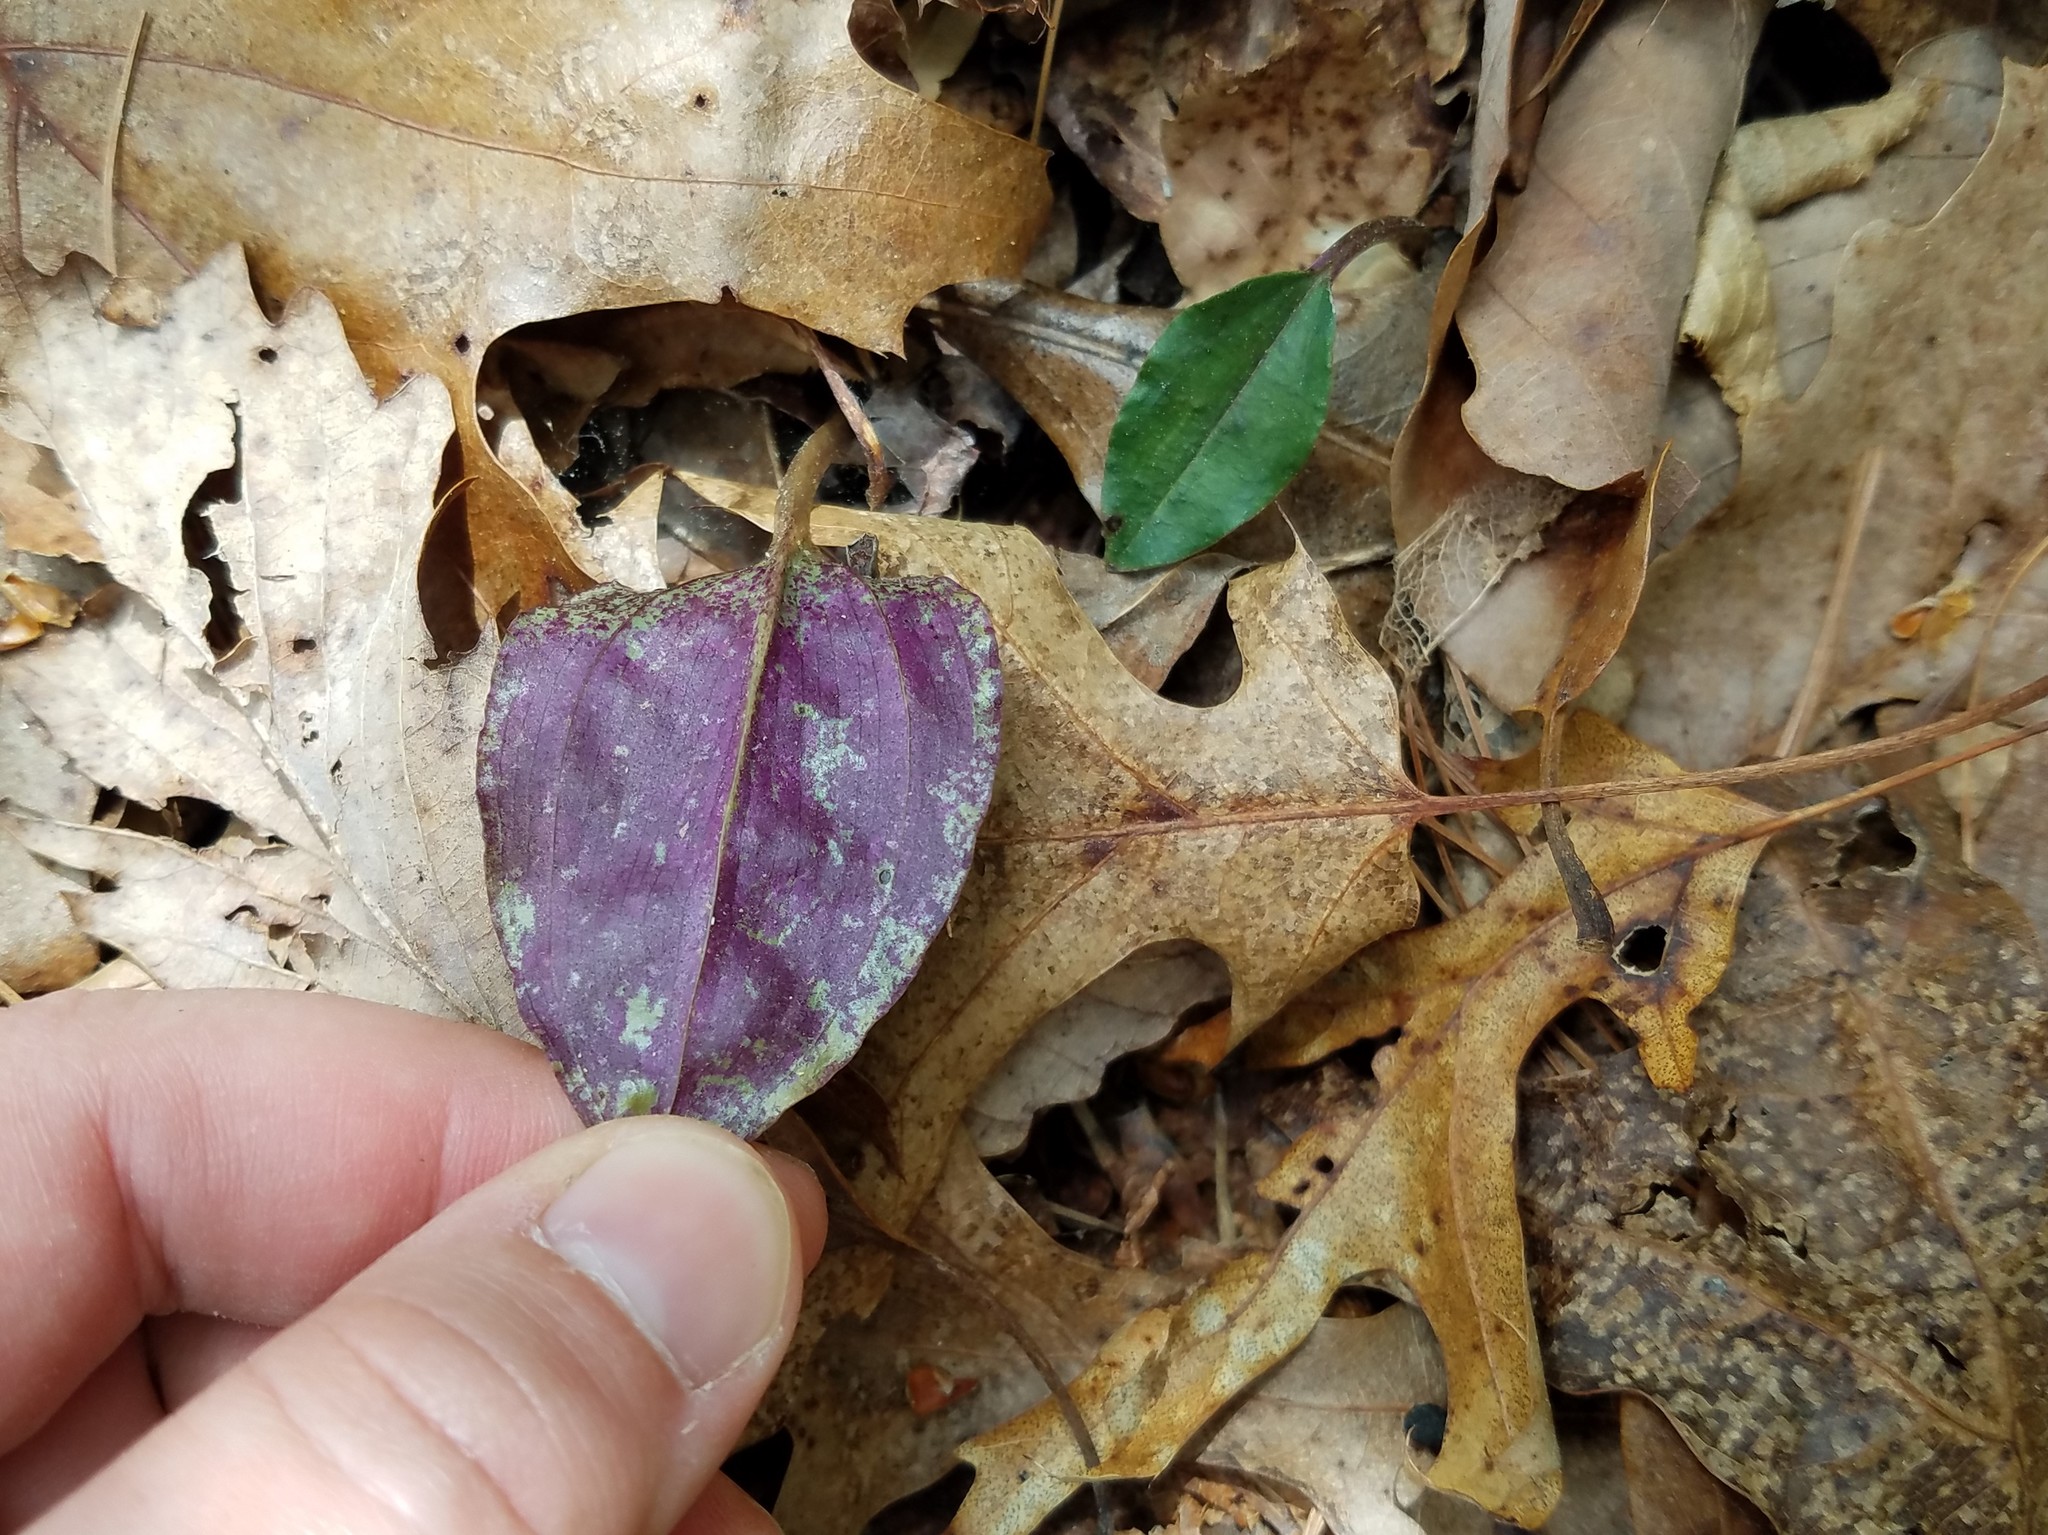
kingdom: Plantae
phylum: Tracheophyta
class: Liliopsida
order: Asparagales
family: Orchidaceae
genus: Tipularia
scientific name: Tipularia discolor
